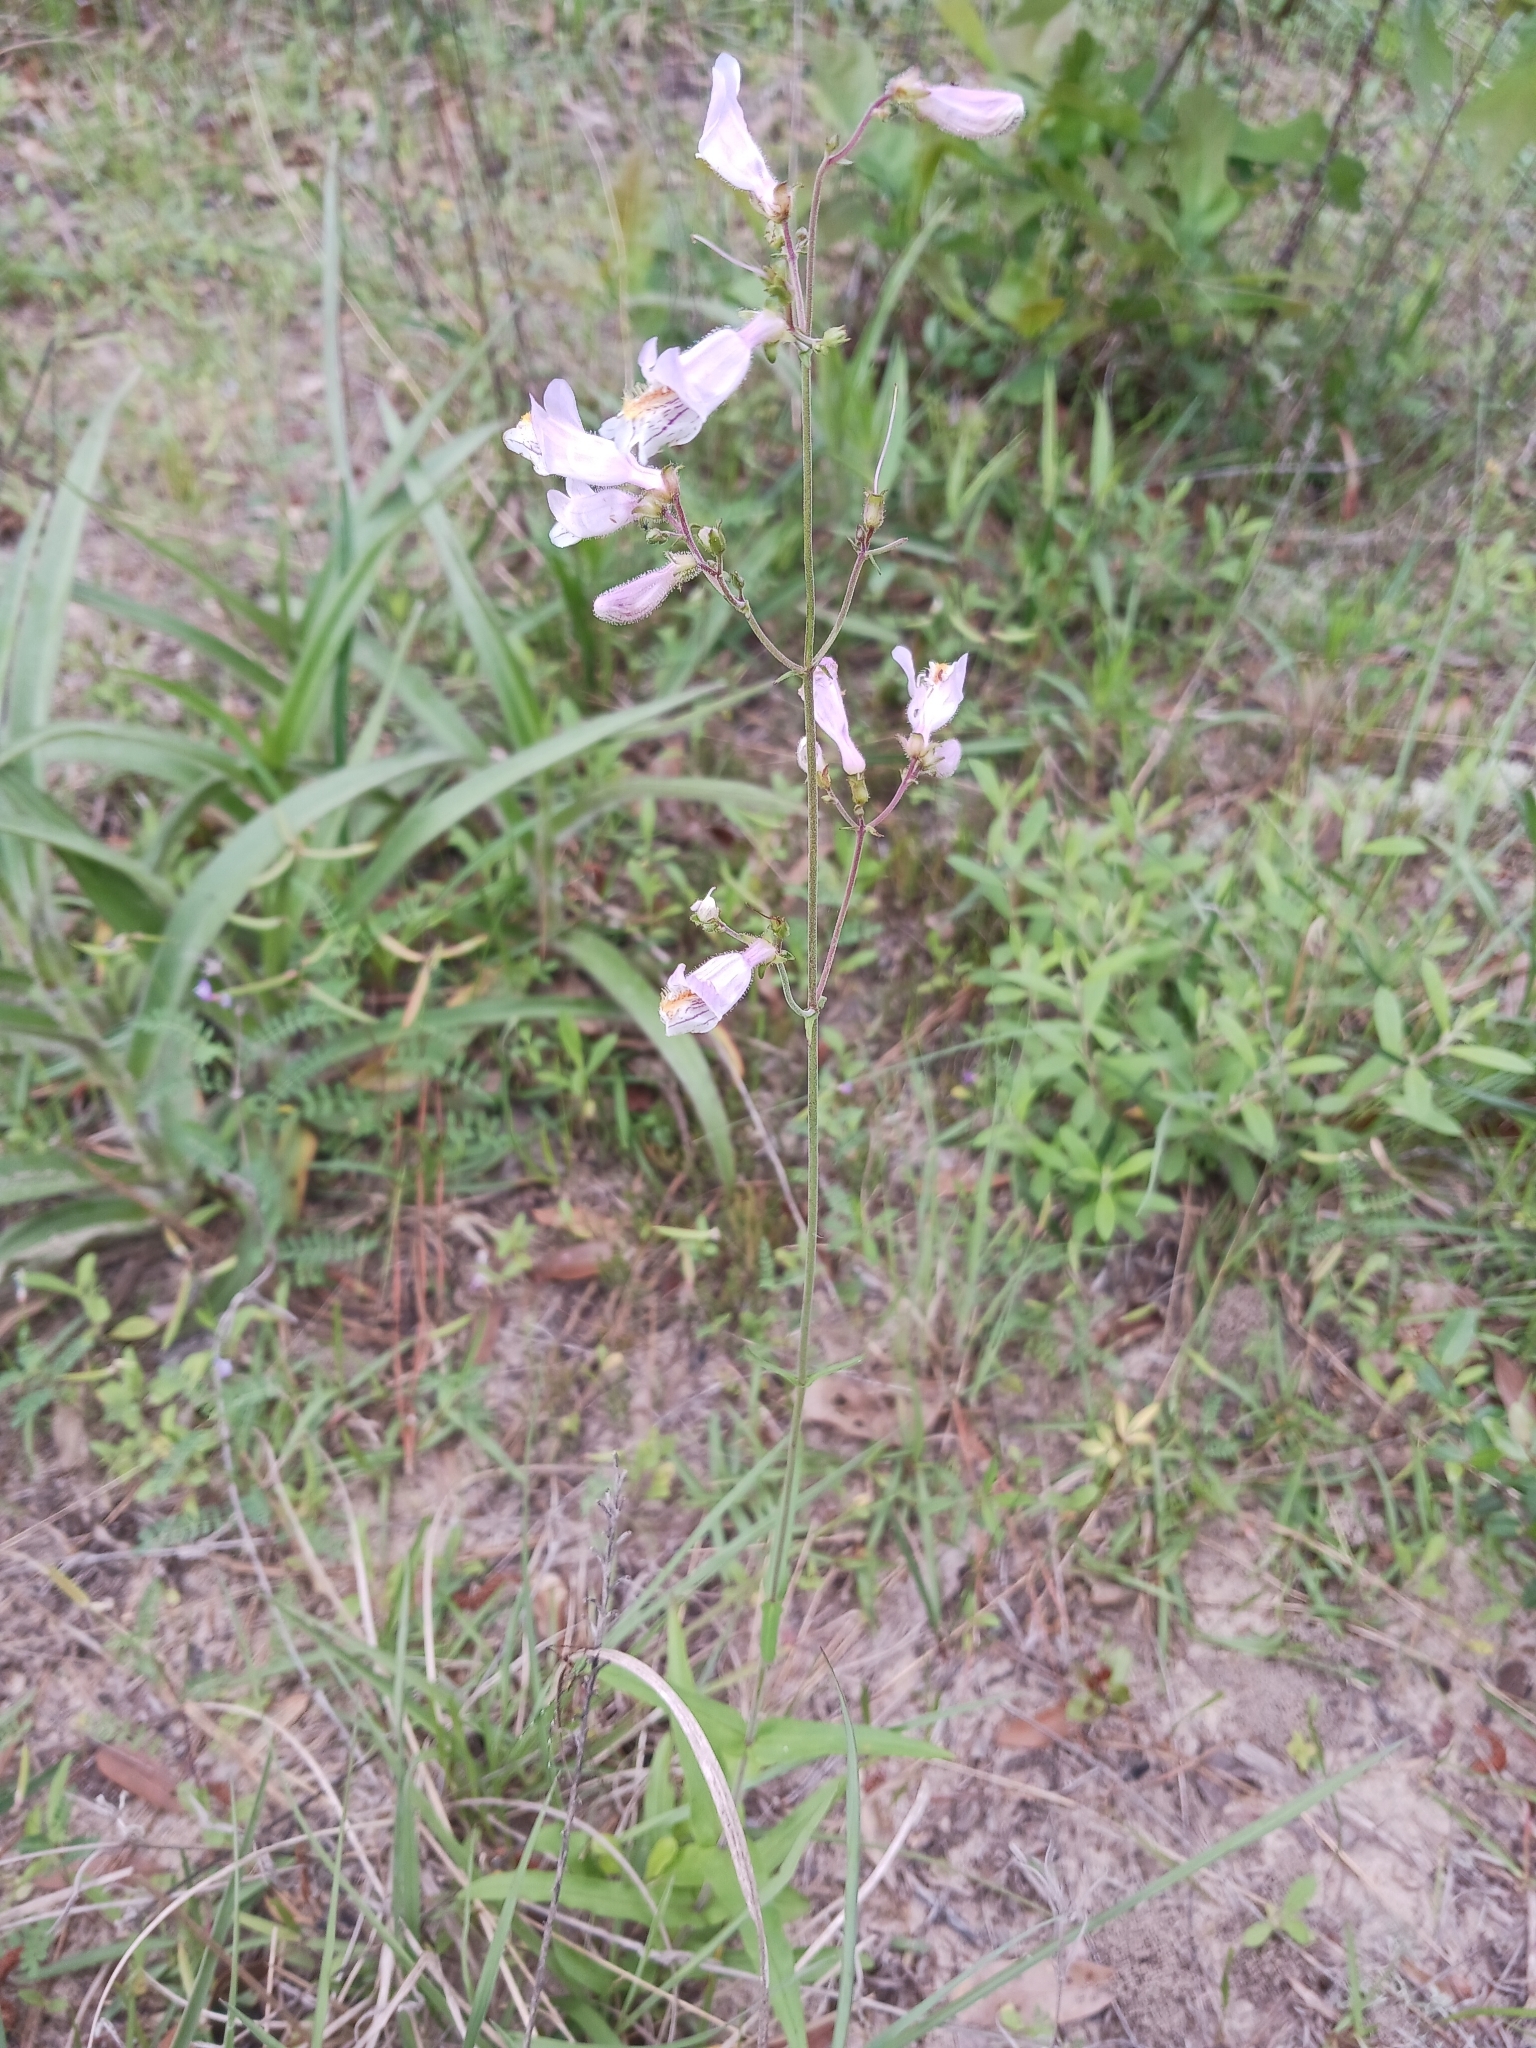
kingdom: Plantae
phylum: Tracheophyta
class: Magnoliopsida
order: Lamiales
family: Plantaginaceae
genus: Penstemon
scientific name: Penstemon laxiflorus
